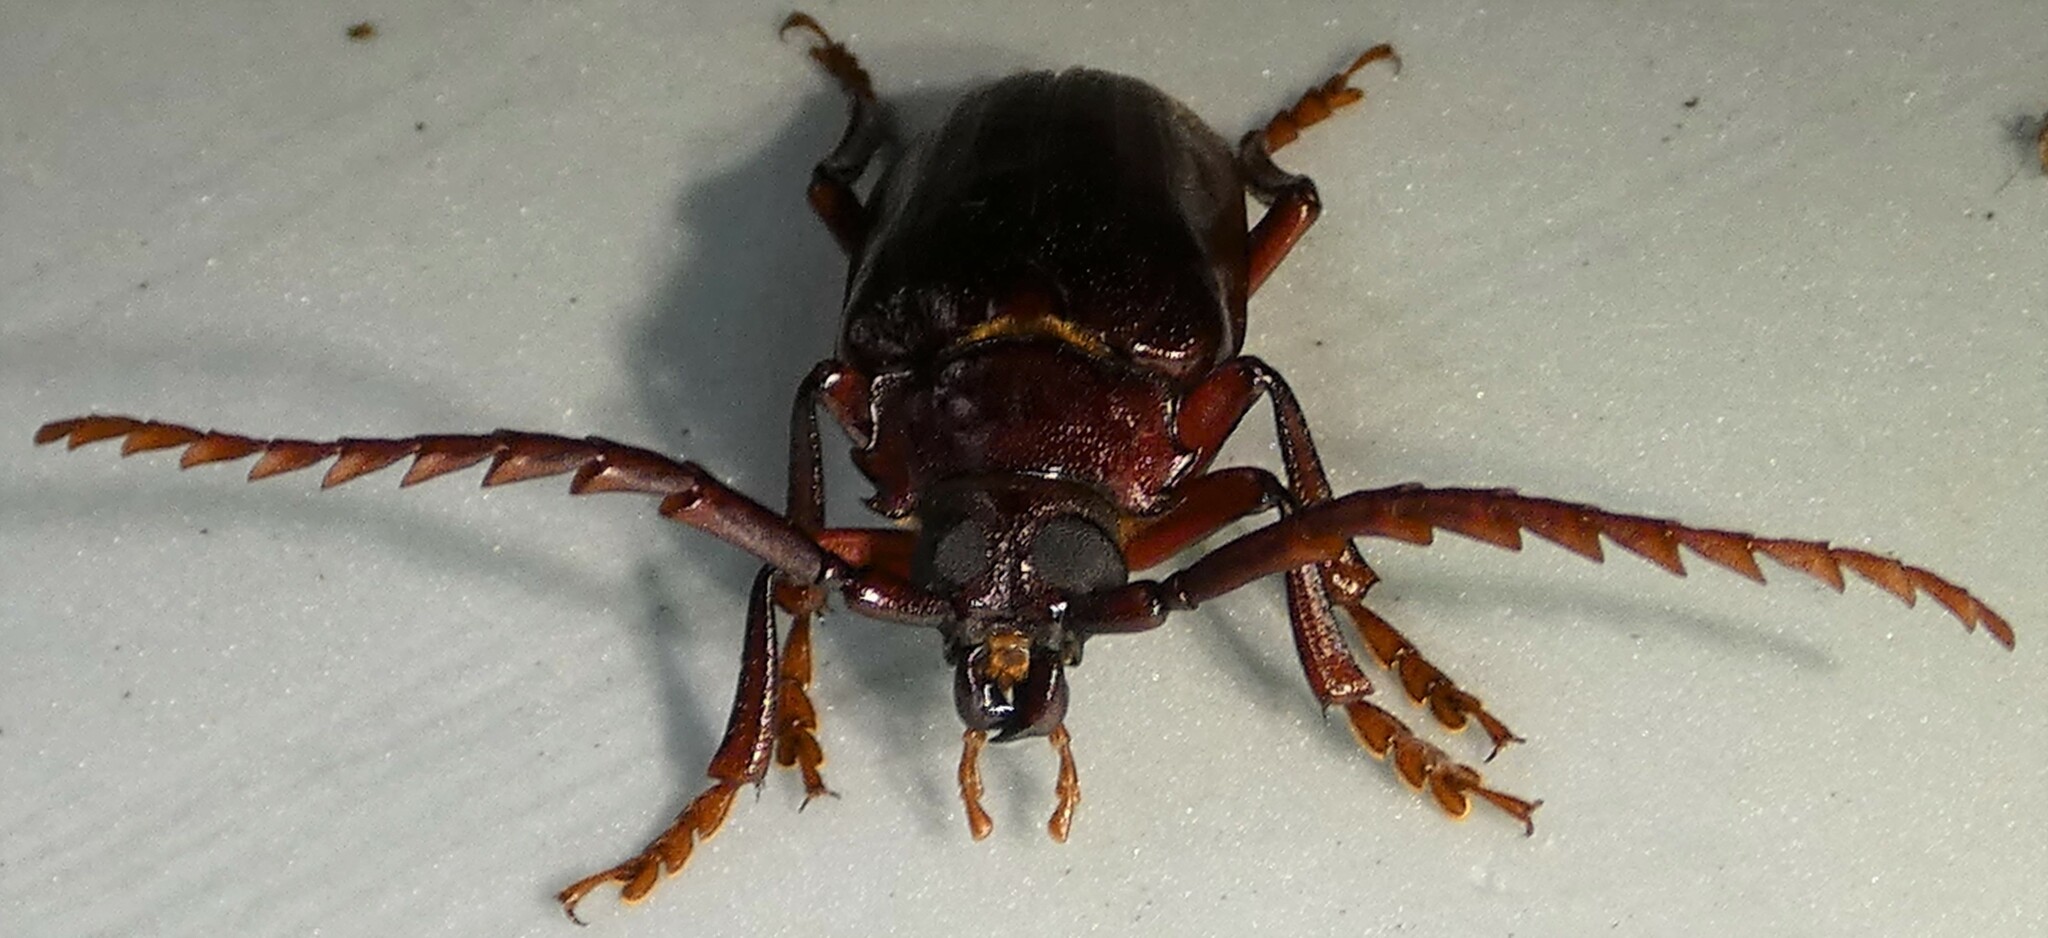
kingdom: Animalia
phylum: Arthropoda
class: Insecta
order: Coleoptera
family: Cerambycidae
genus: Prionus
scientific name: Prionus pocularis
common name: Tooth-necked longhorn beetle
